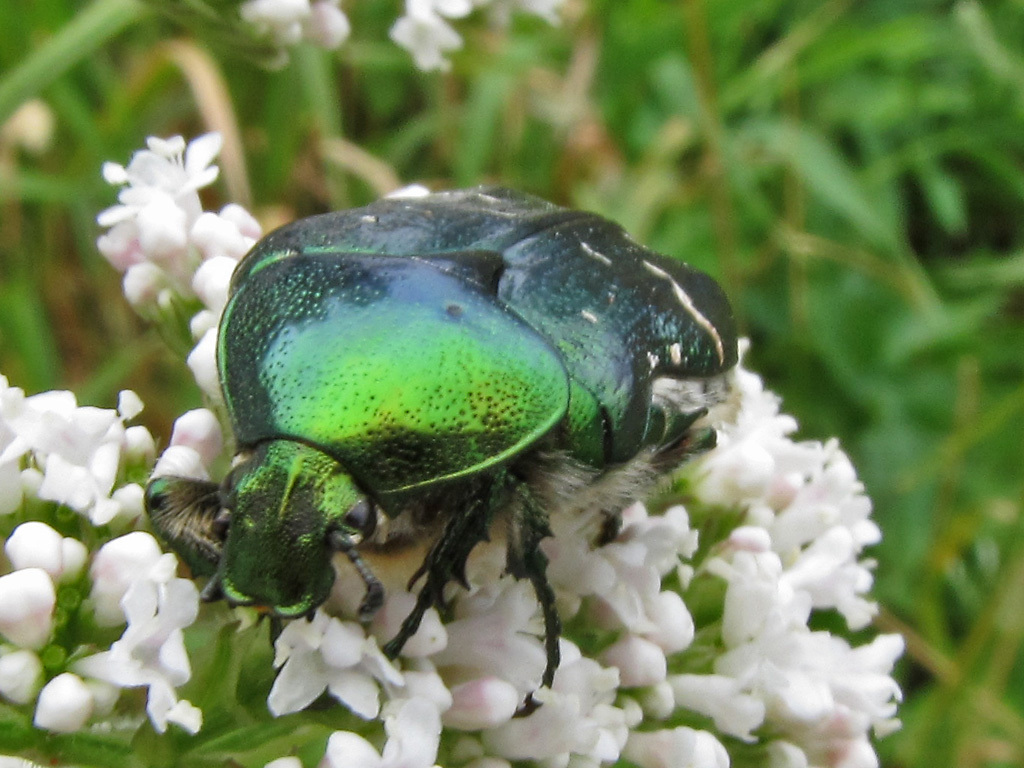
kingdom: Animalia
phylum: Arthropoda
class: Insecta
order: Coleoptera
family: Scarabaeidae
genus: Cetonia
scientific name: Cetonia aurata
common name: Rose chafer
